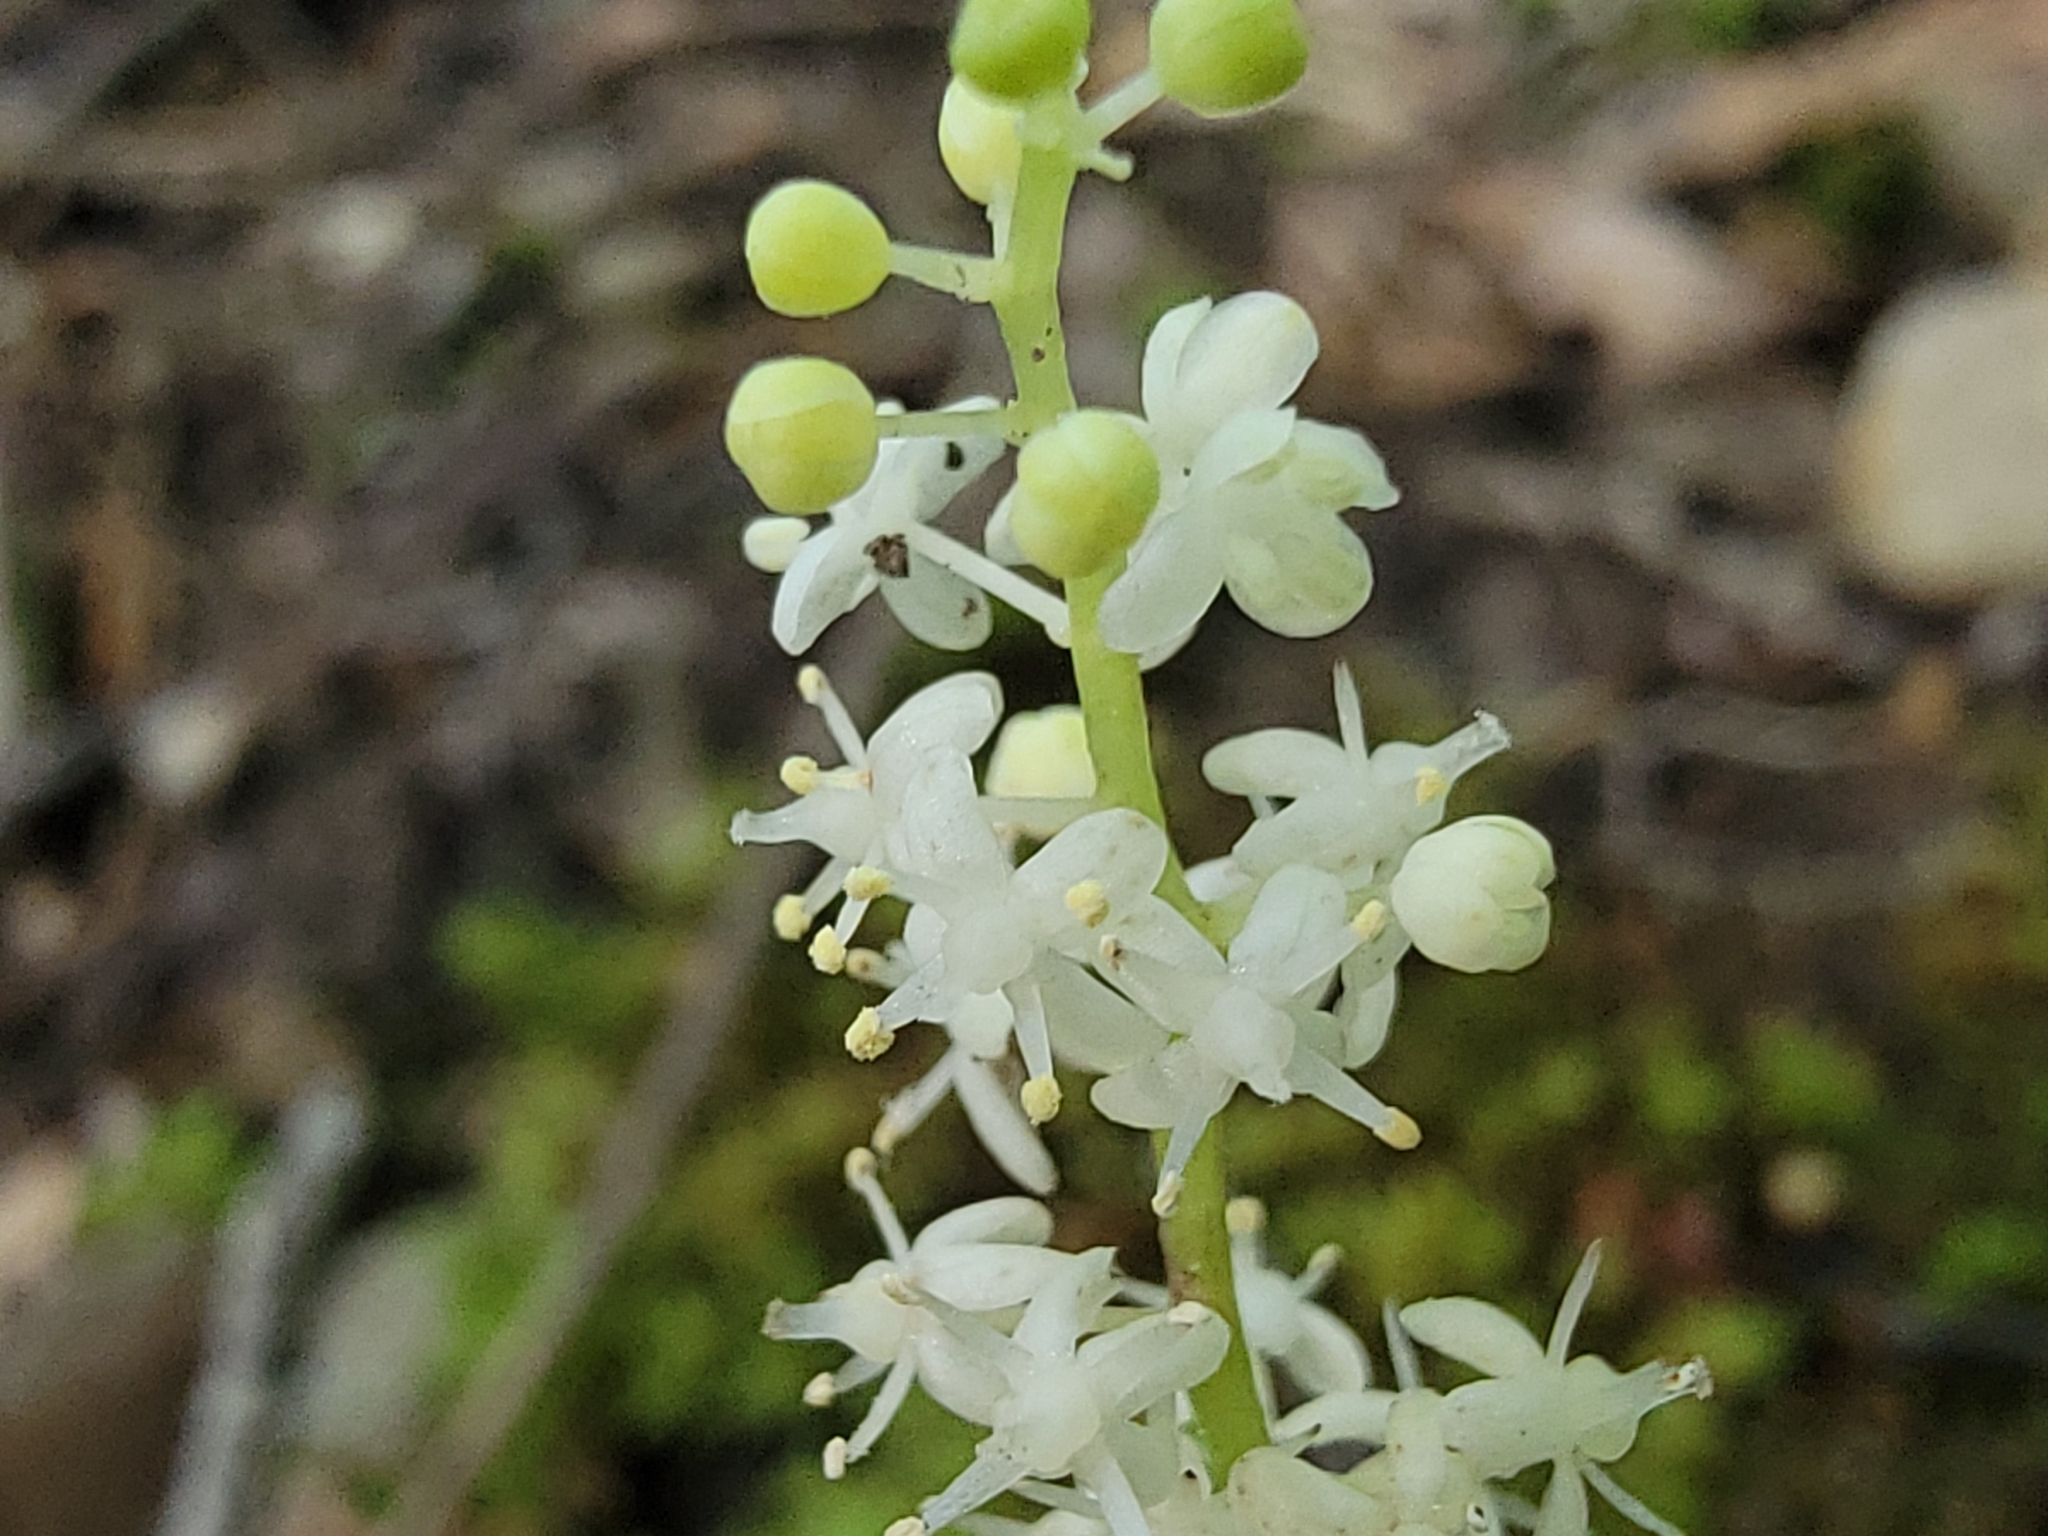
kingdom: Plantae
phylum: Tracheophyta
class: Liliopsida
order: Asparagales
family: Asparagaceae
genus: Maianthemum
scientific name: Maianthemum canadense
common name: False lily-of-the-valley
